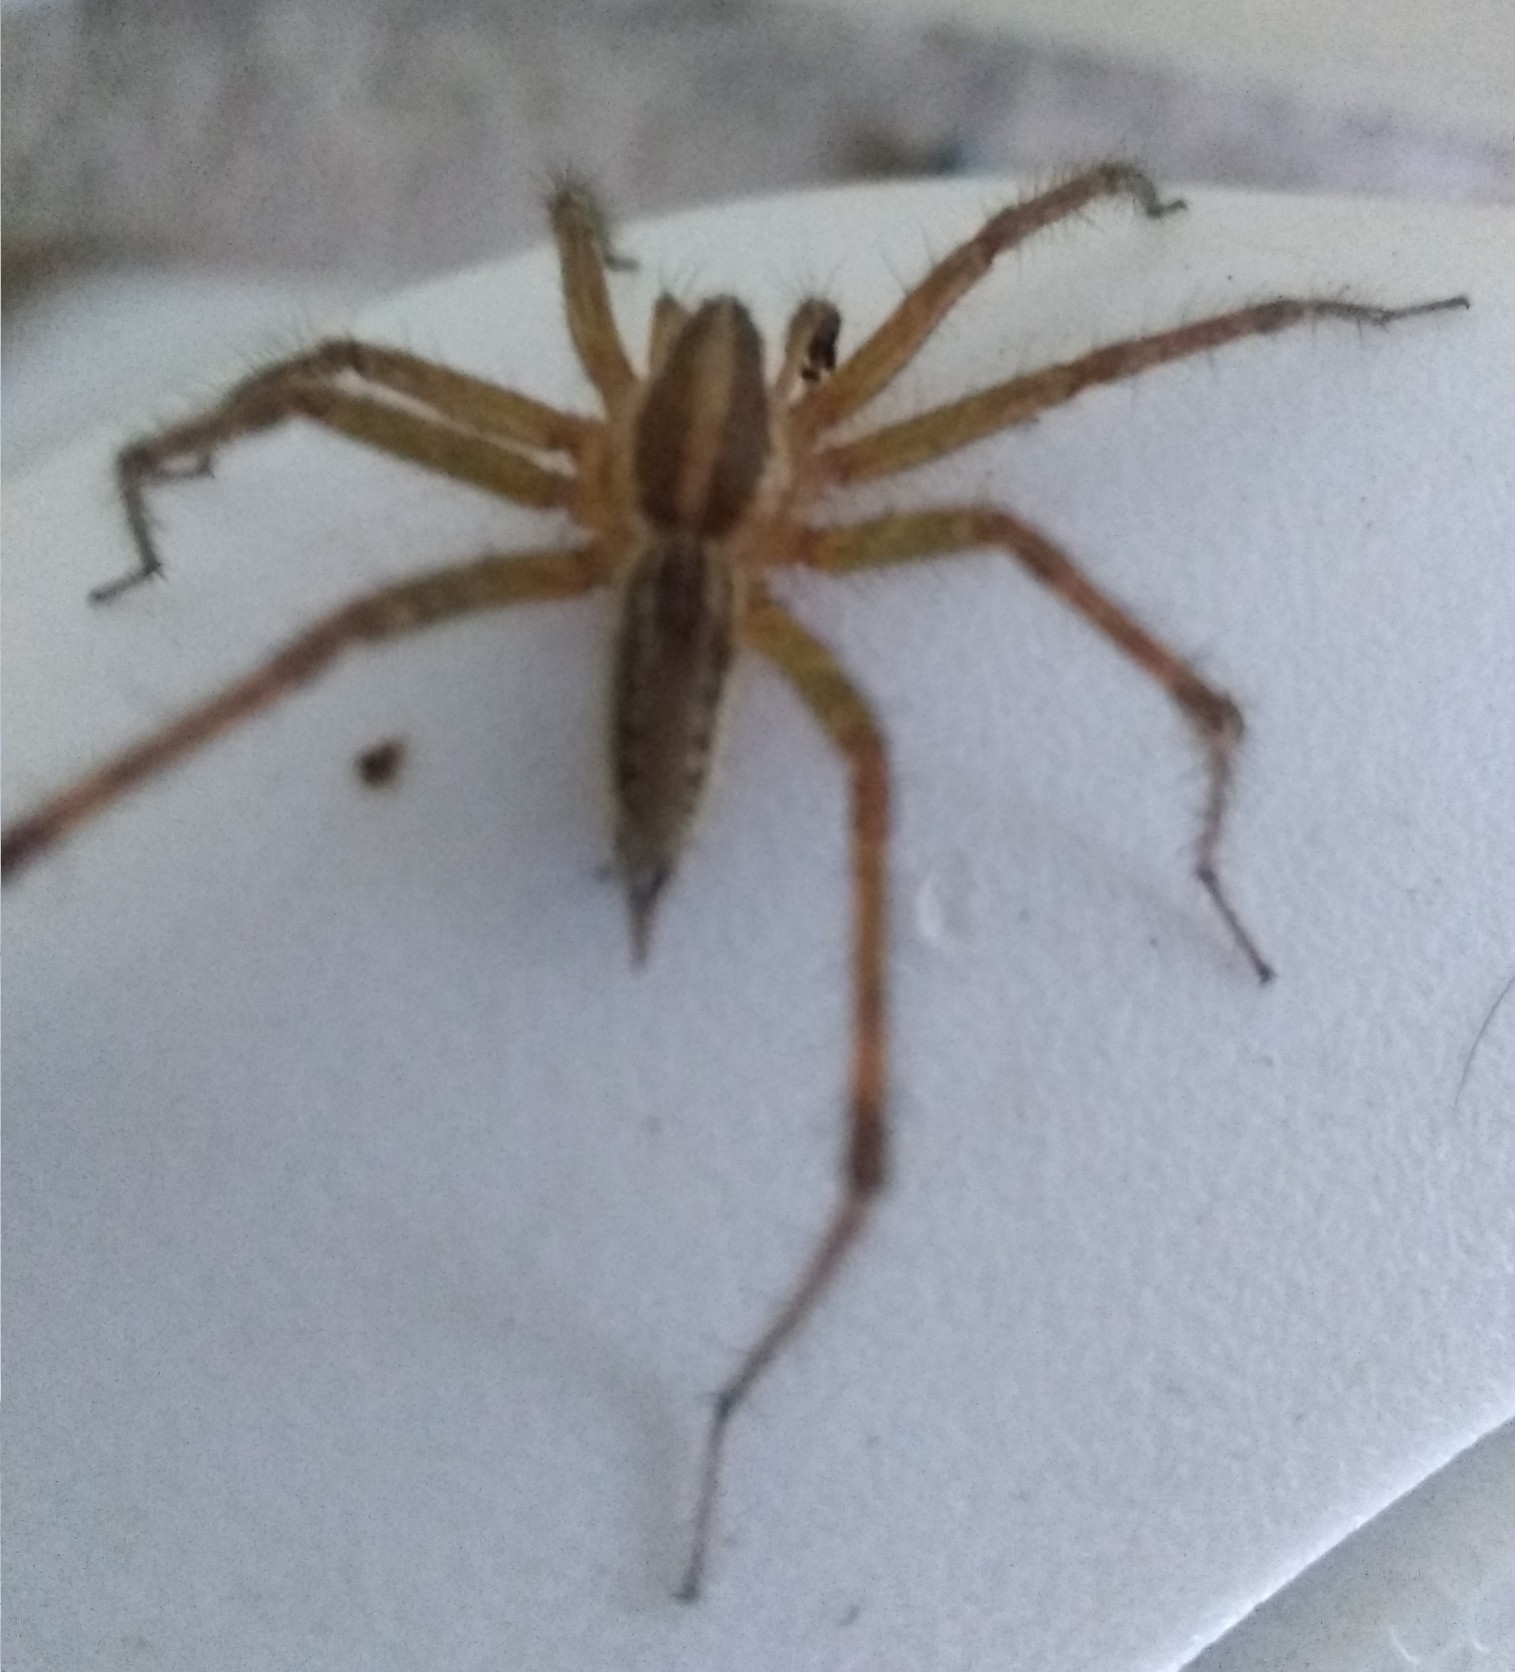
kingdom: Animalia
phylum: Arthropoda
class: Arachnida
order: Araneae
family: Agelenidae
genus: Agelenopsis
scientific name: Agelenopsis
